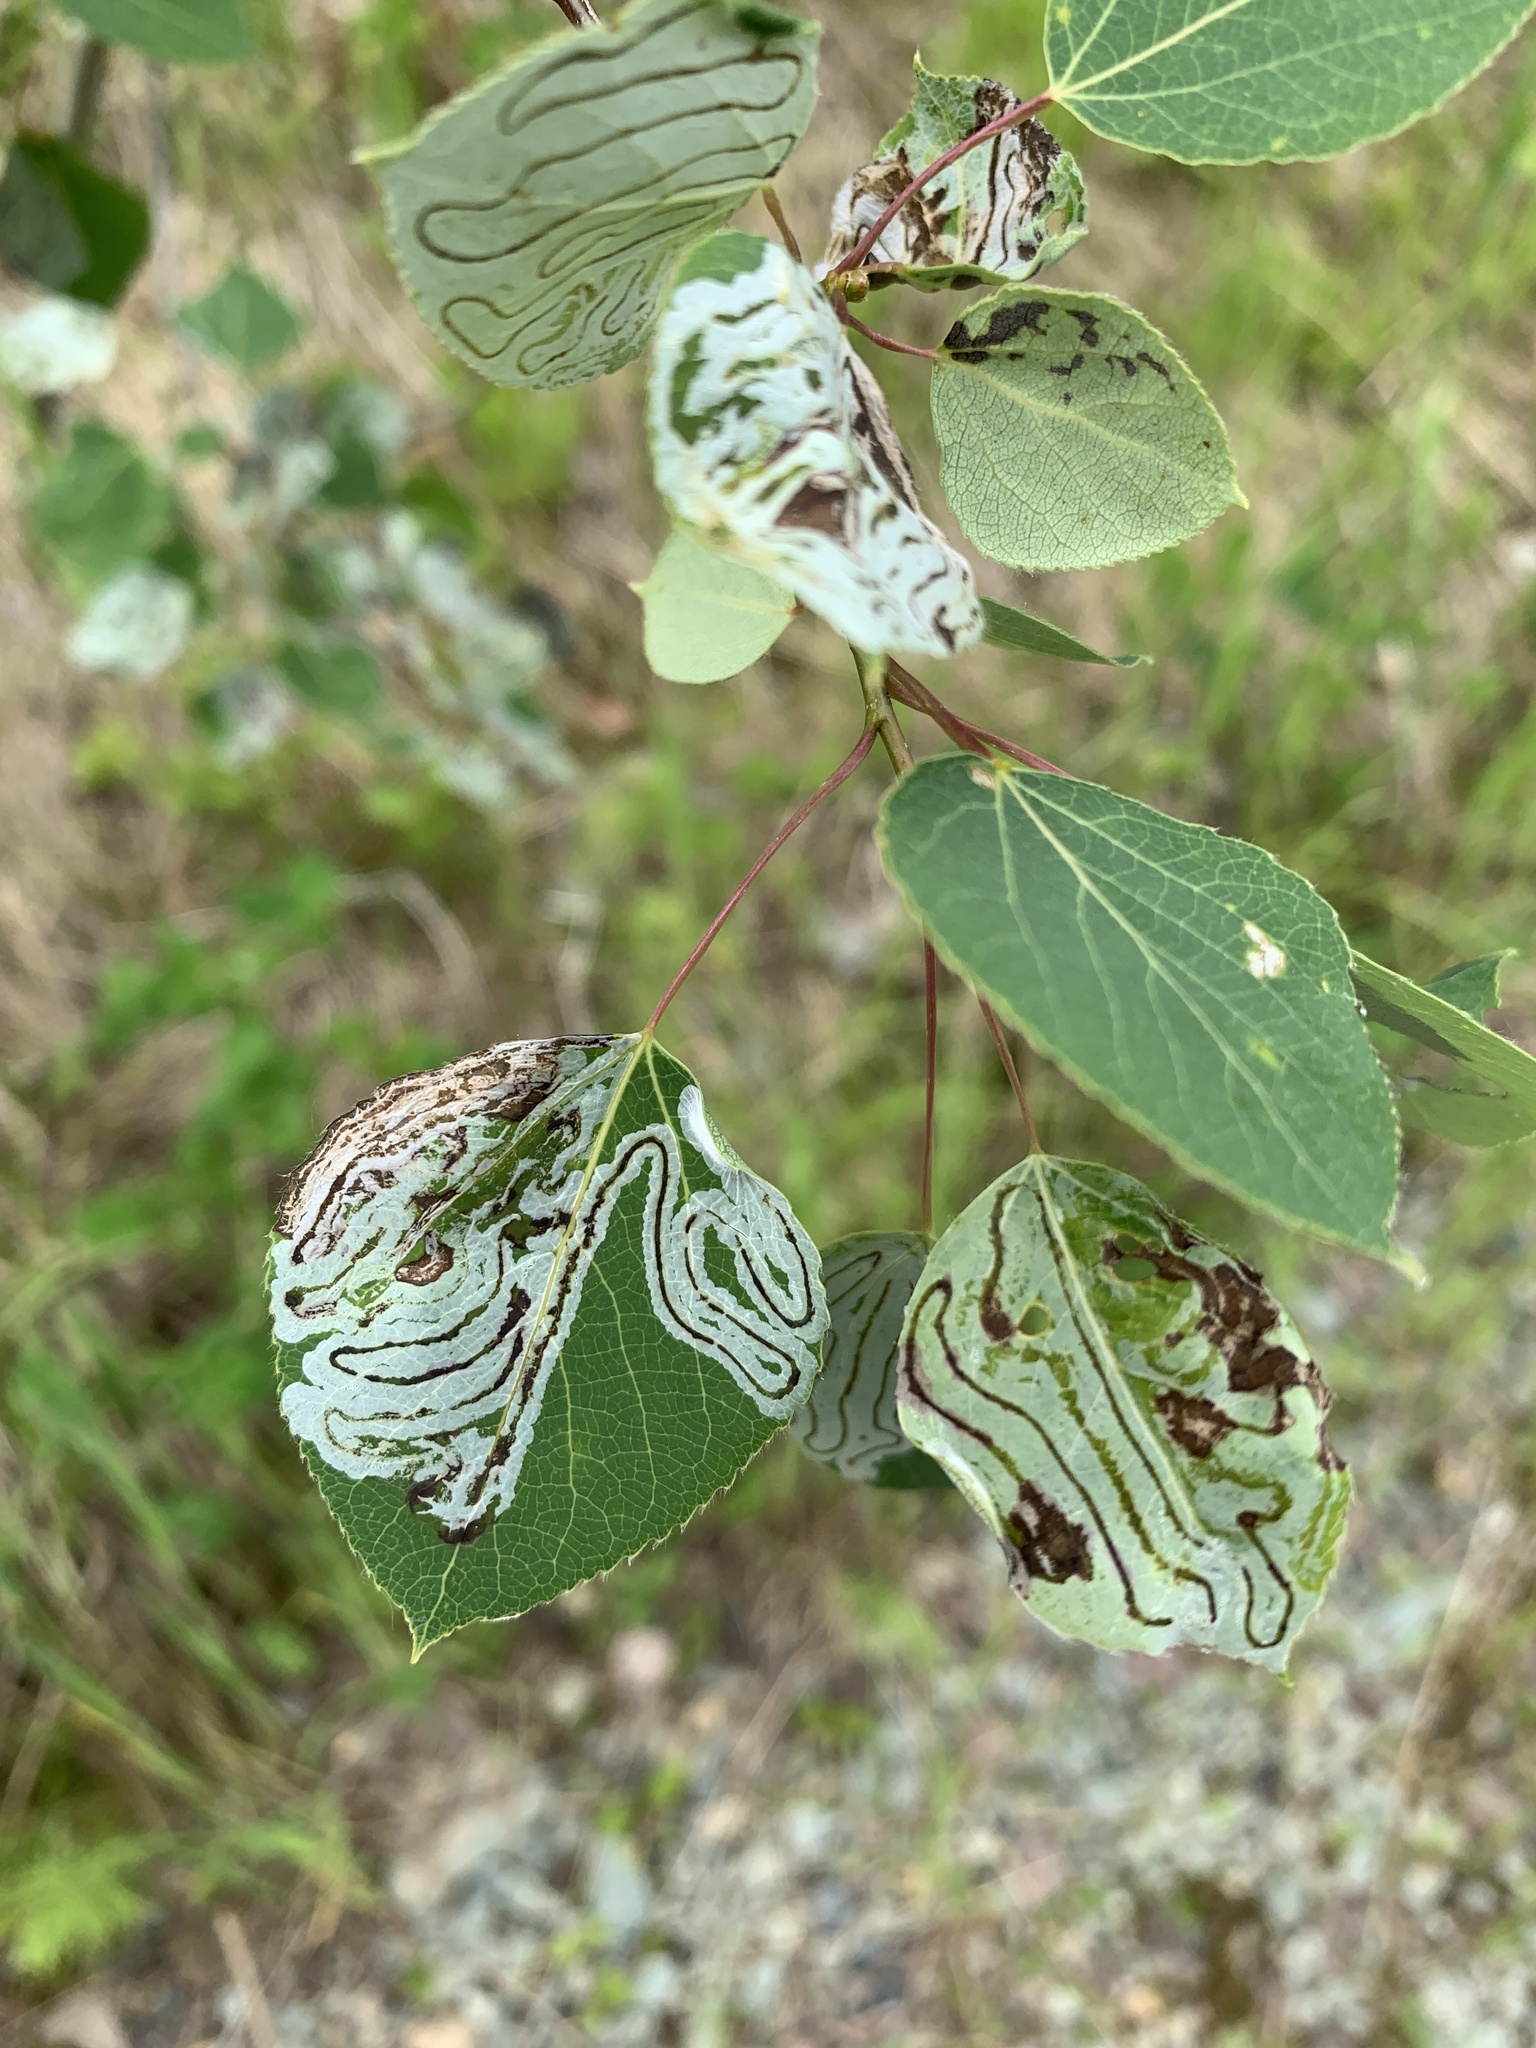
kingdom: Animalia
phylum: Arthropoda
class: Insecta
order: Lepidoptera
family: Gracillariidae
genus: Phyllocnistis
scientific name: Phyllocnistis populiella
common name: Aspen serpentine leafminer moth
